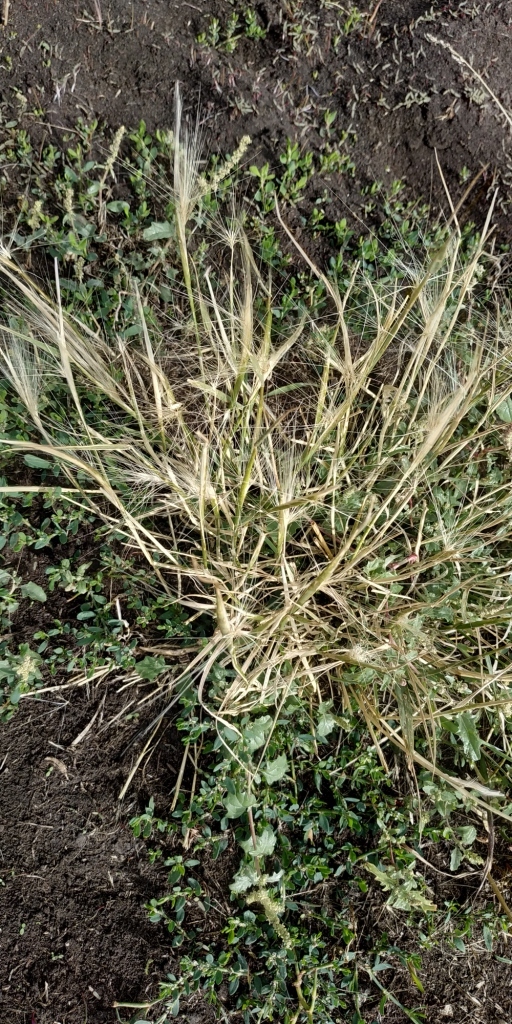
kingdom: Plantae
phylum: Tracheophyta
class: Liliopsida
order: Poales
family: Poaceae
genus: Hordeum
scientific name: Hordeum jubatum
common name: Foxtail barley
